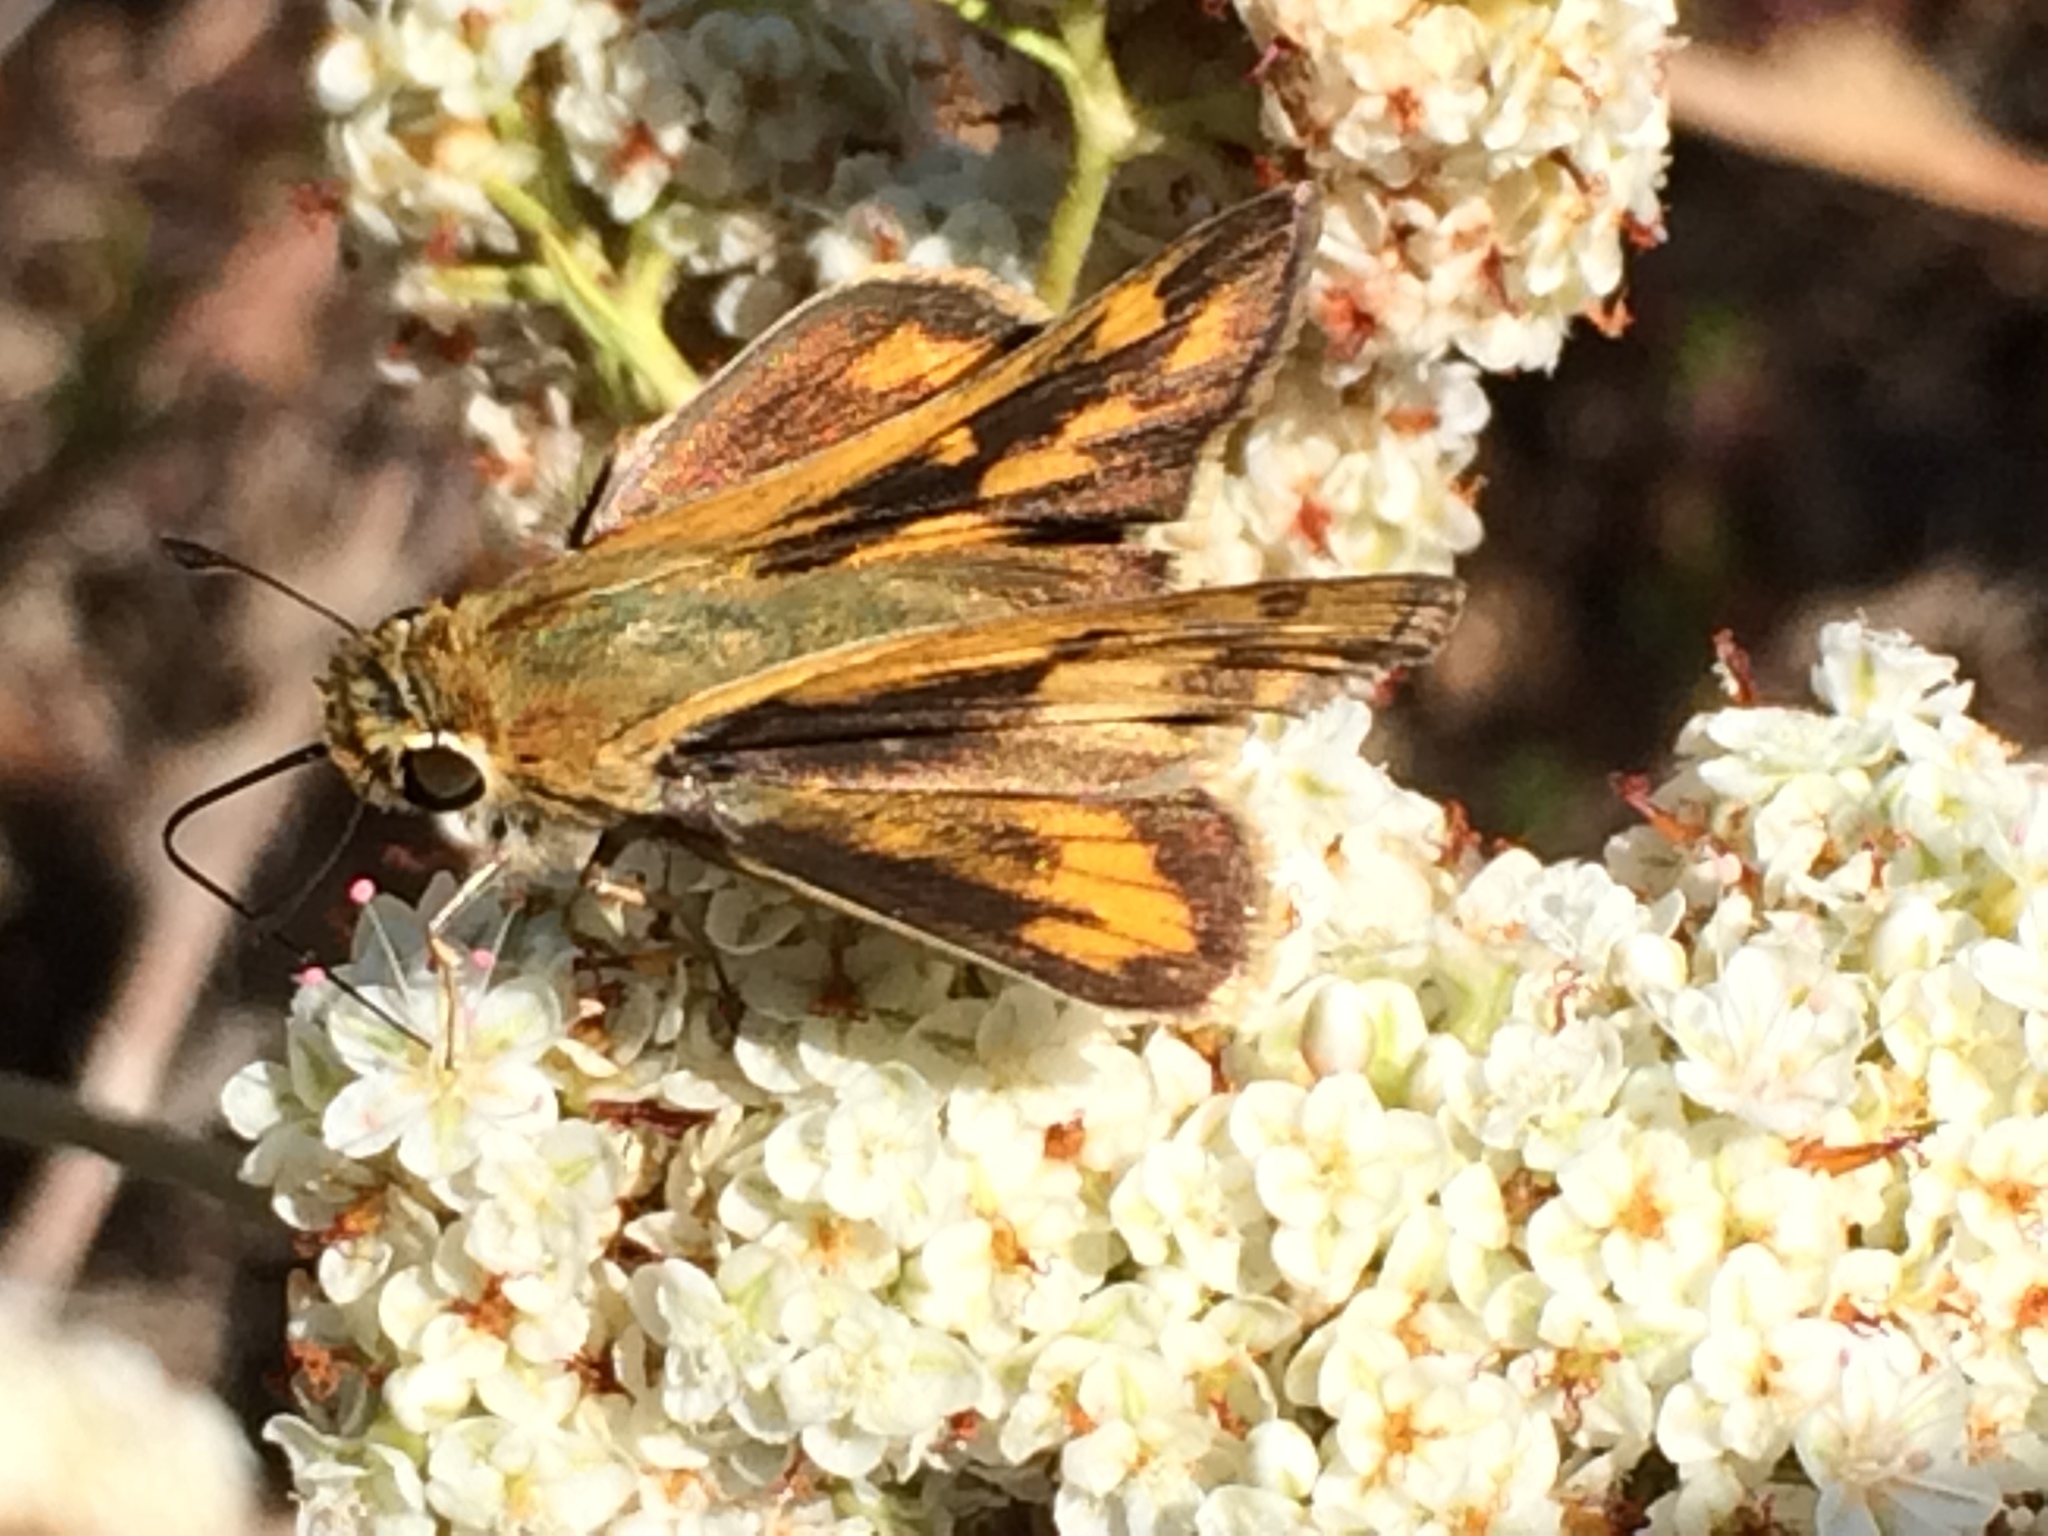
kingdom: Animalia
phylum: Arthropoda
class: Insecta
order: Lepidoptera
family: Hesperiidae
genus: Hylephila
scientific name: Hylephila phyleus
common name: Fiery skipper
